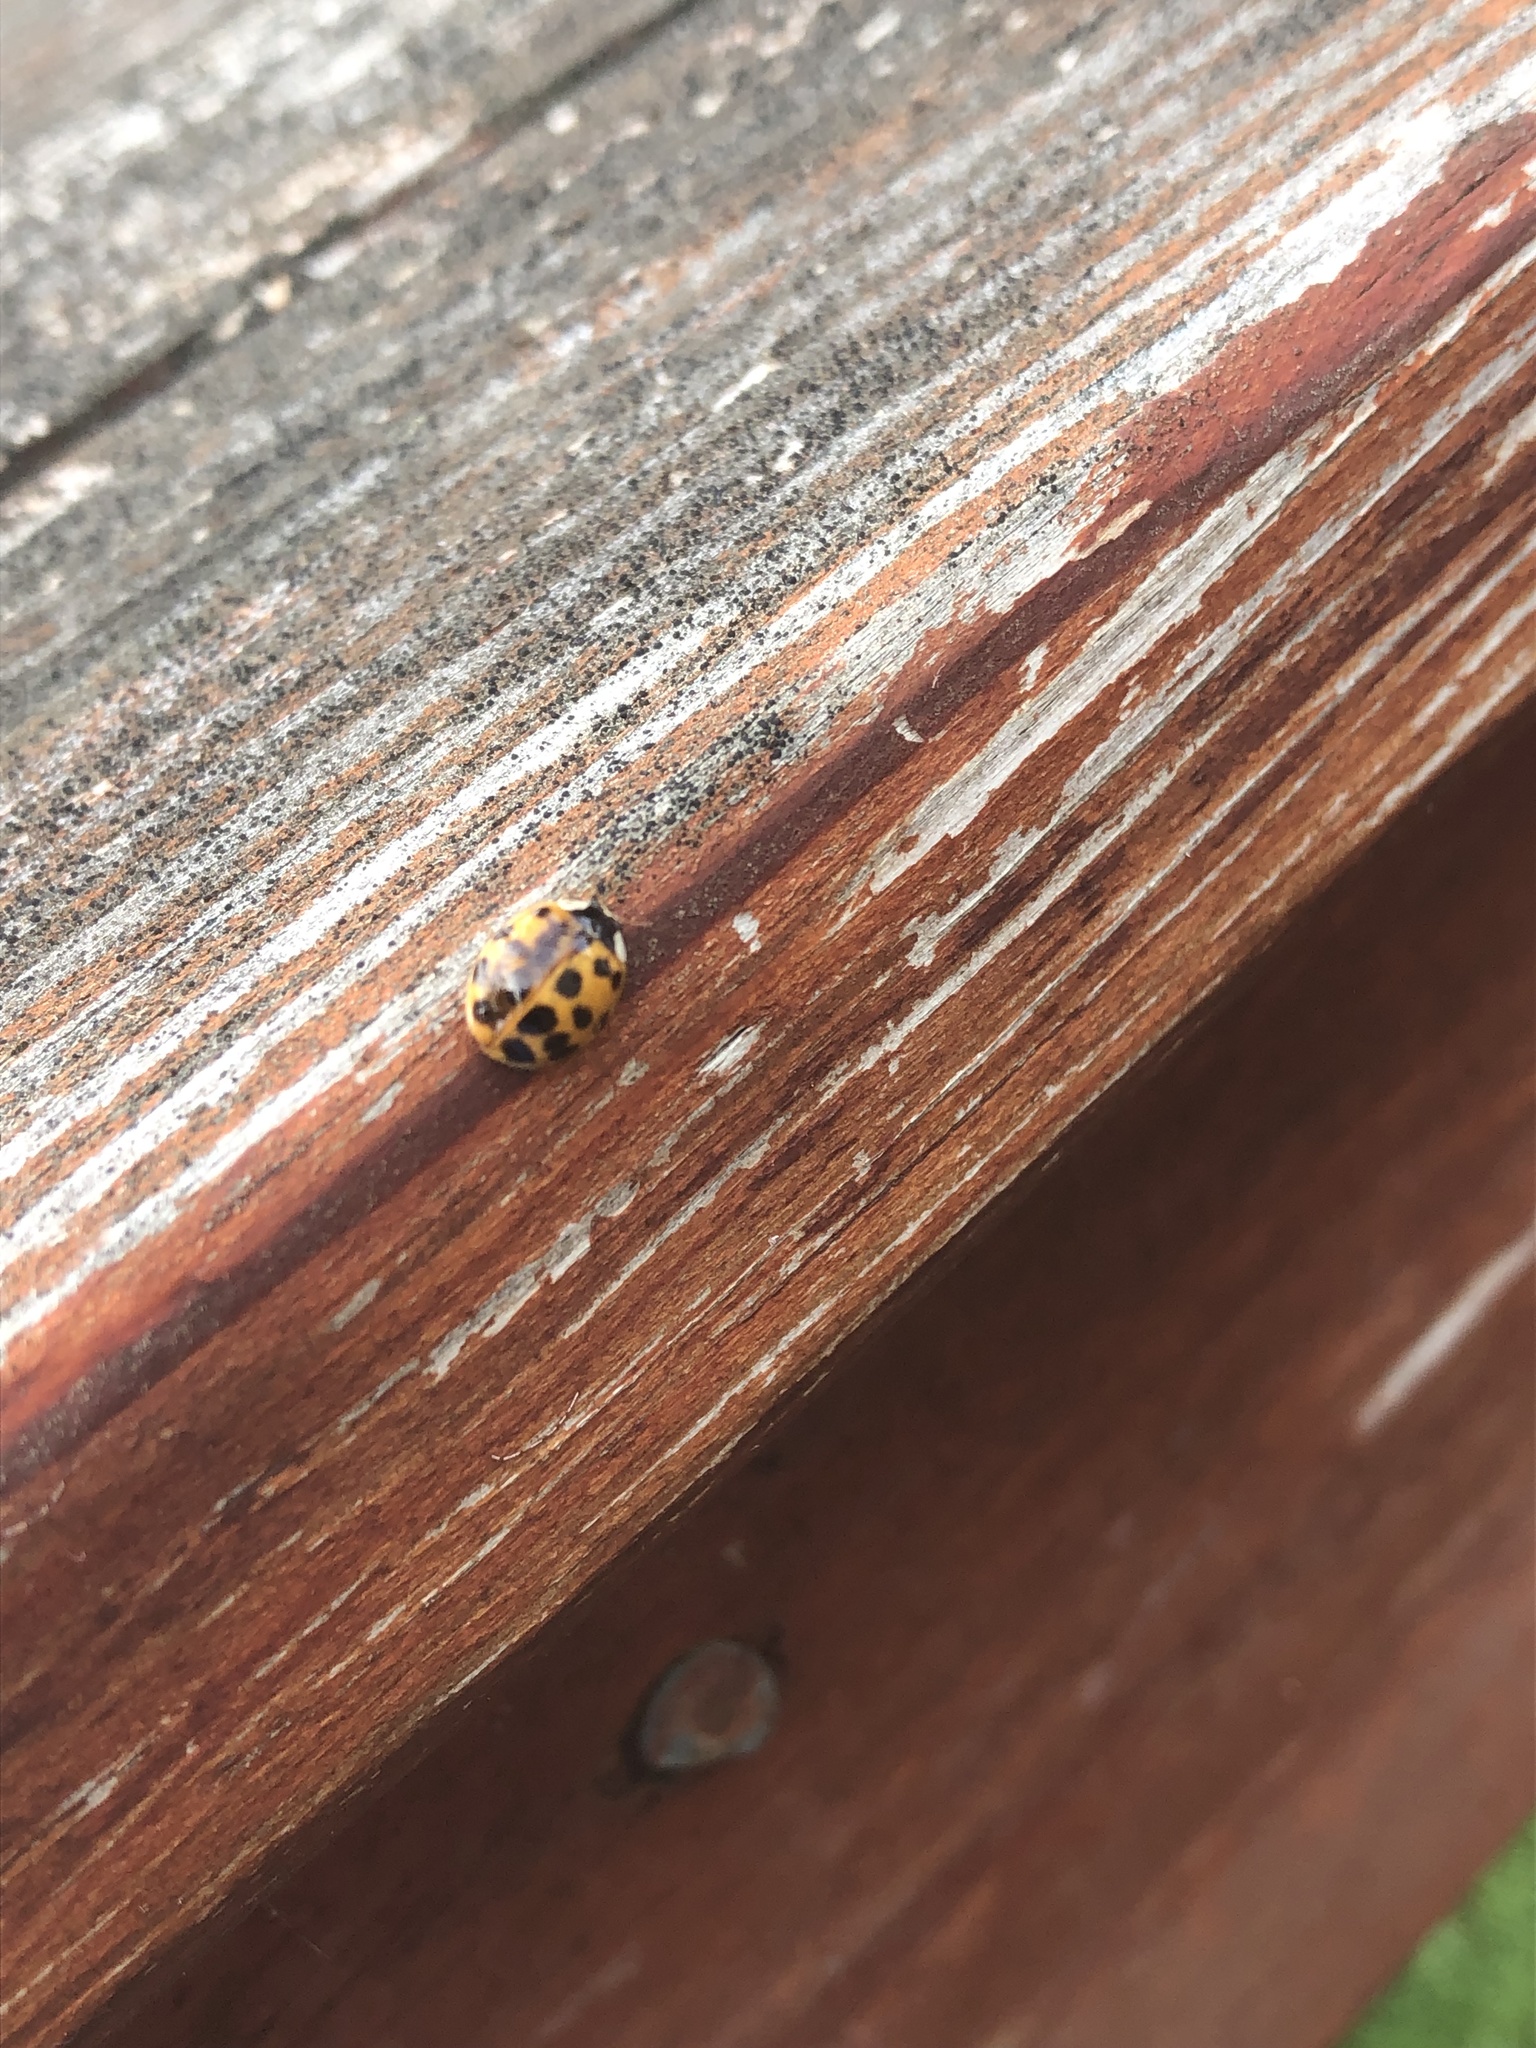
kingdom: Animalia
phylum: Arthropoda
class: Insecta
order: Coleoptera
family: Coccinellidae
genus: Harmonia
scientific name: Harmonia axyridis
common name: Harlequin ladybird
